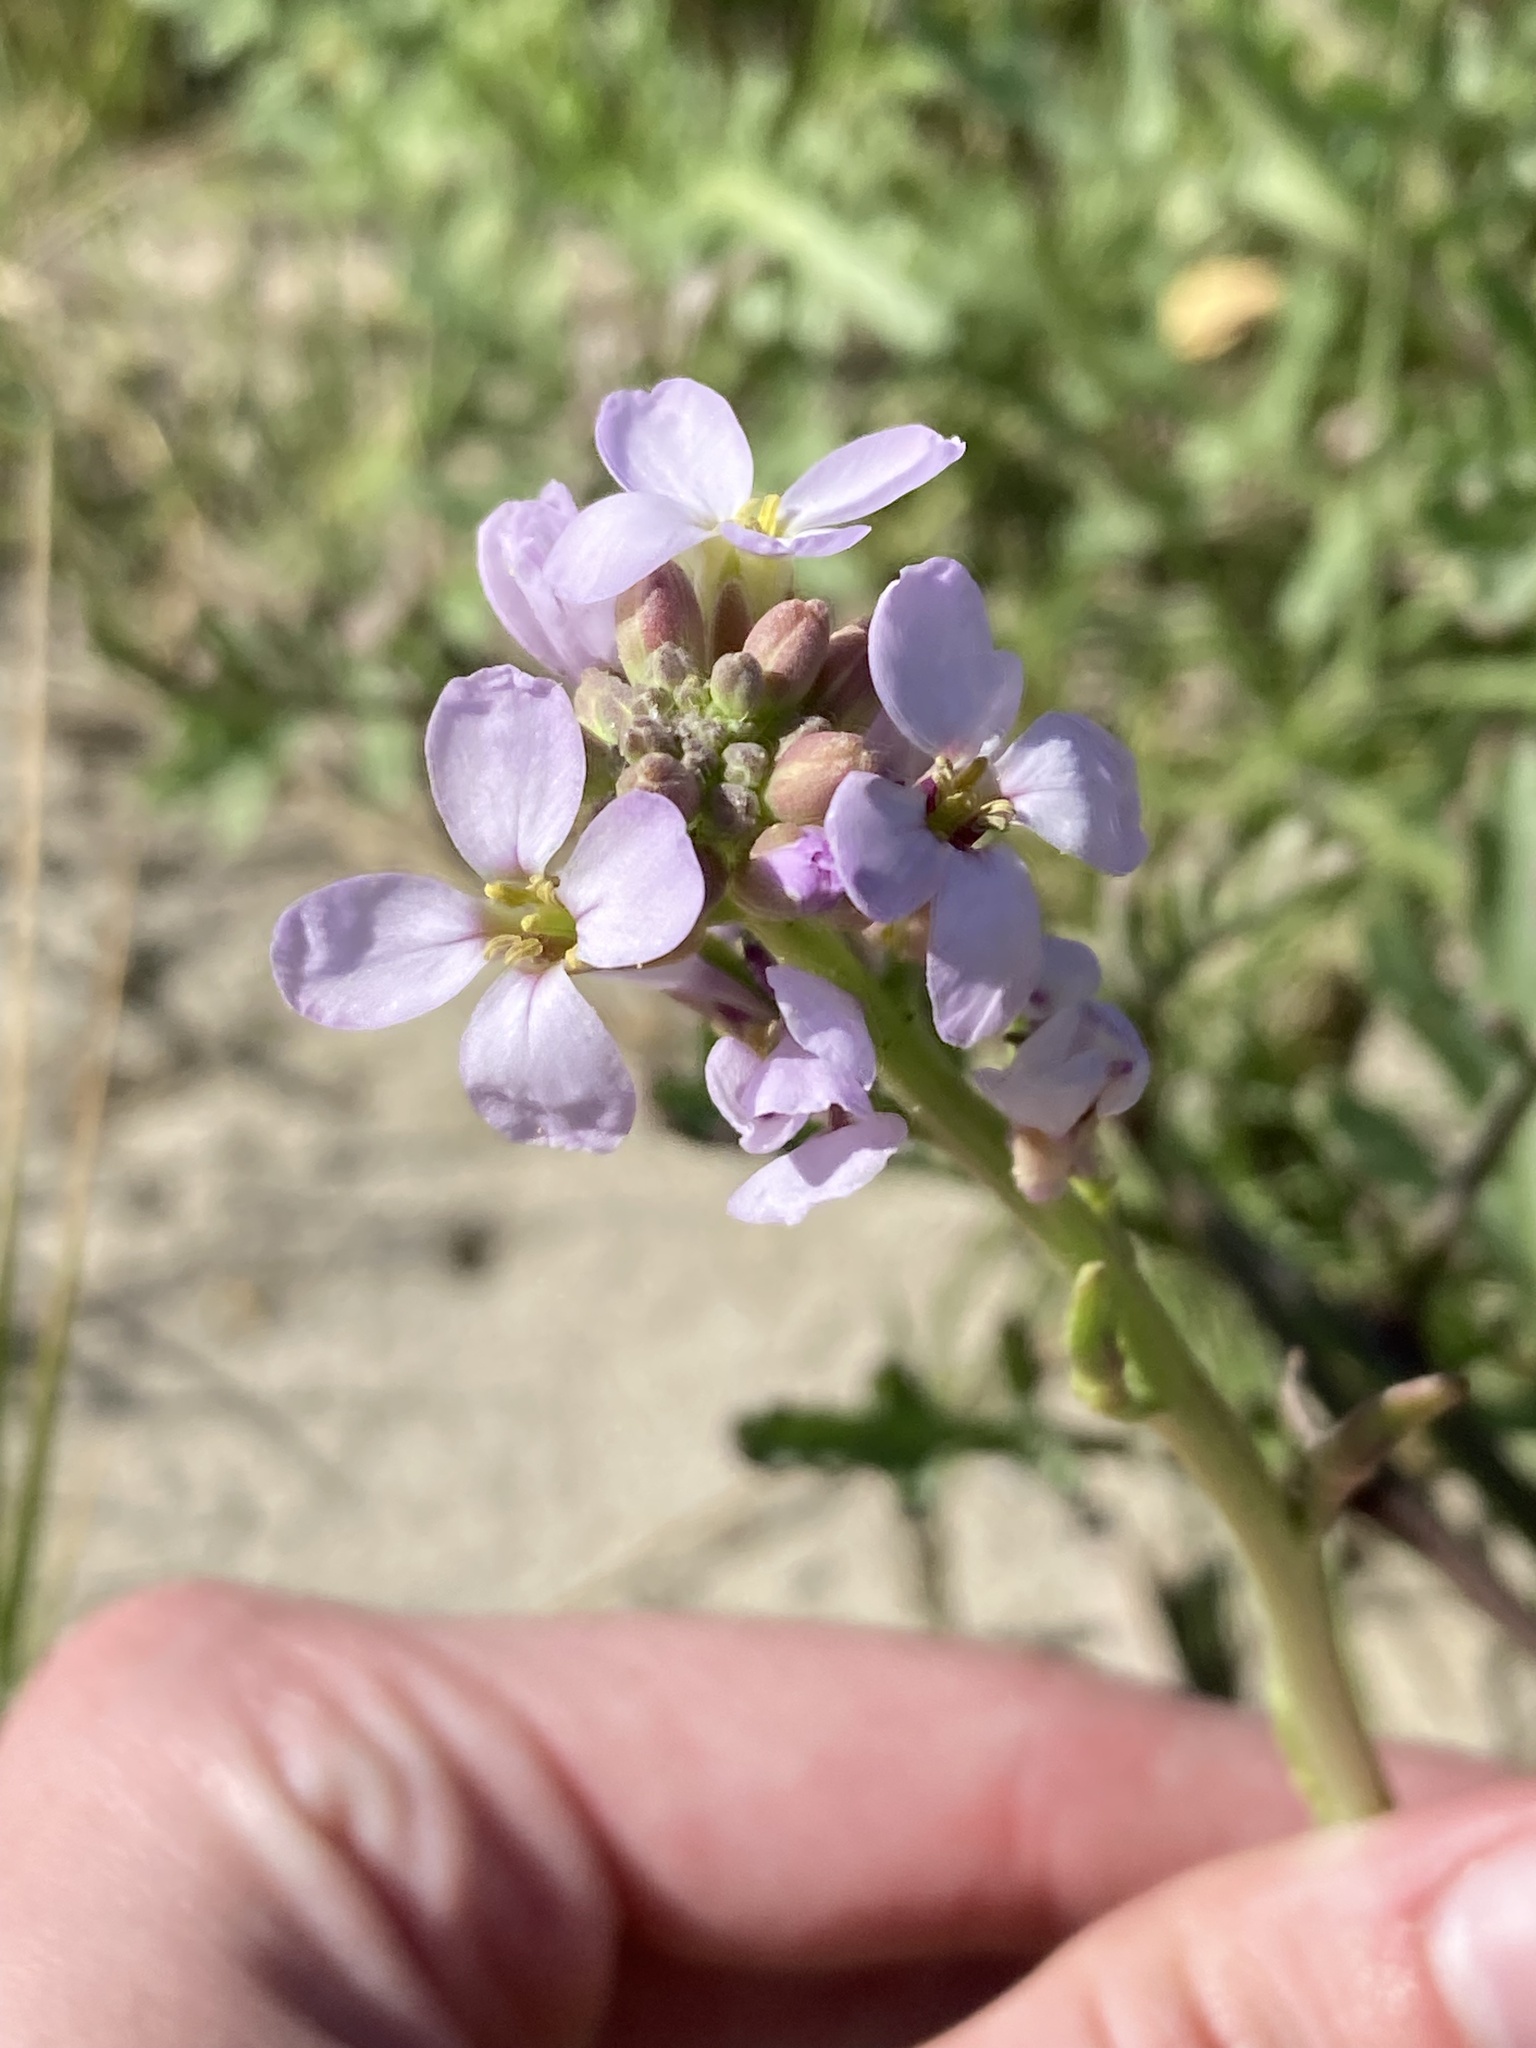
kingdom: Plantae
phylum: Tracheophyta
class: Magnoliopsida
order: Brassicales
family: Brassicaceae
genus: Cakile
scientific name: Cakile maritima
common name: Sea rocket
